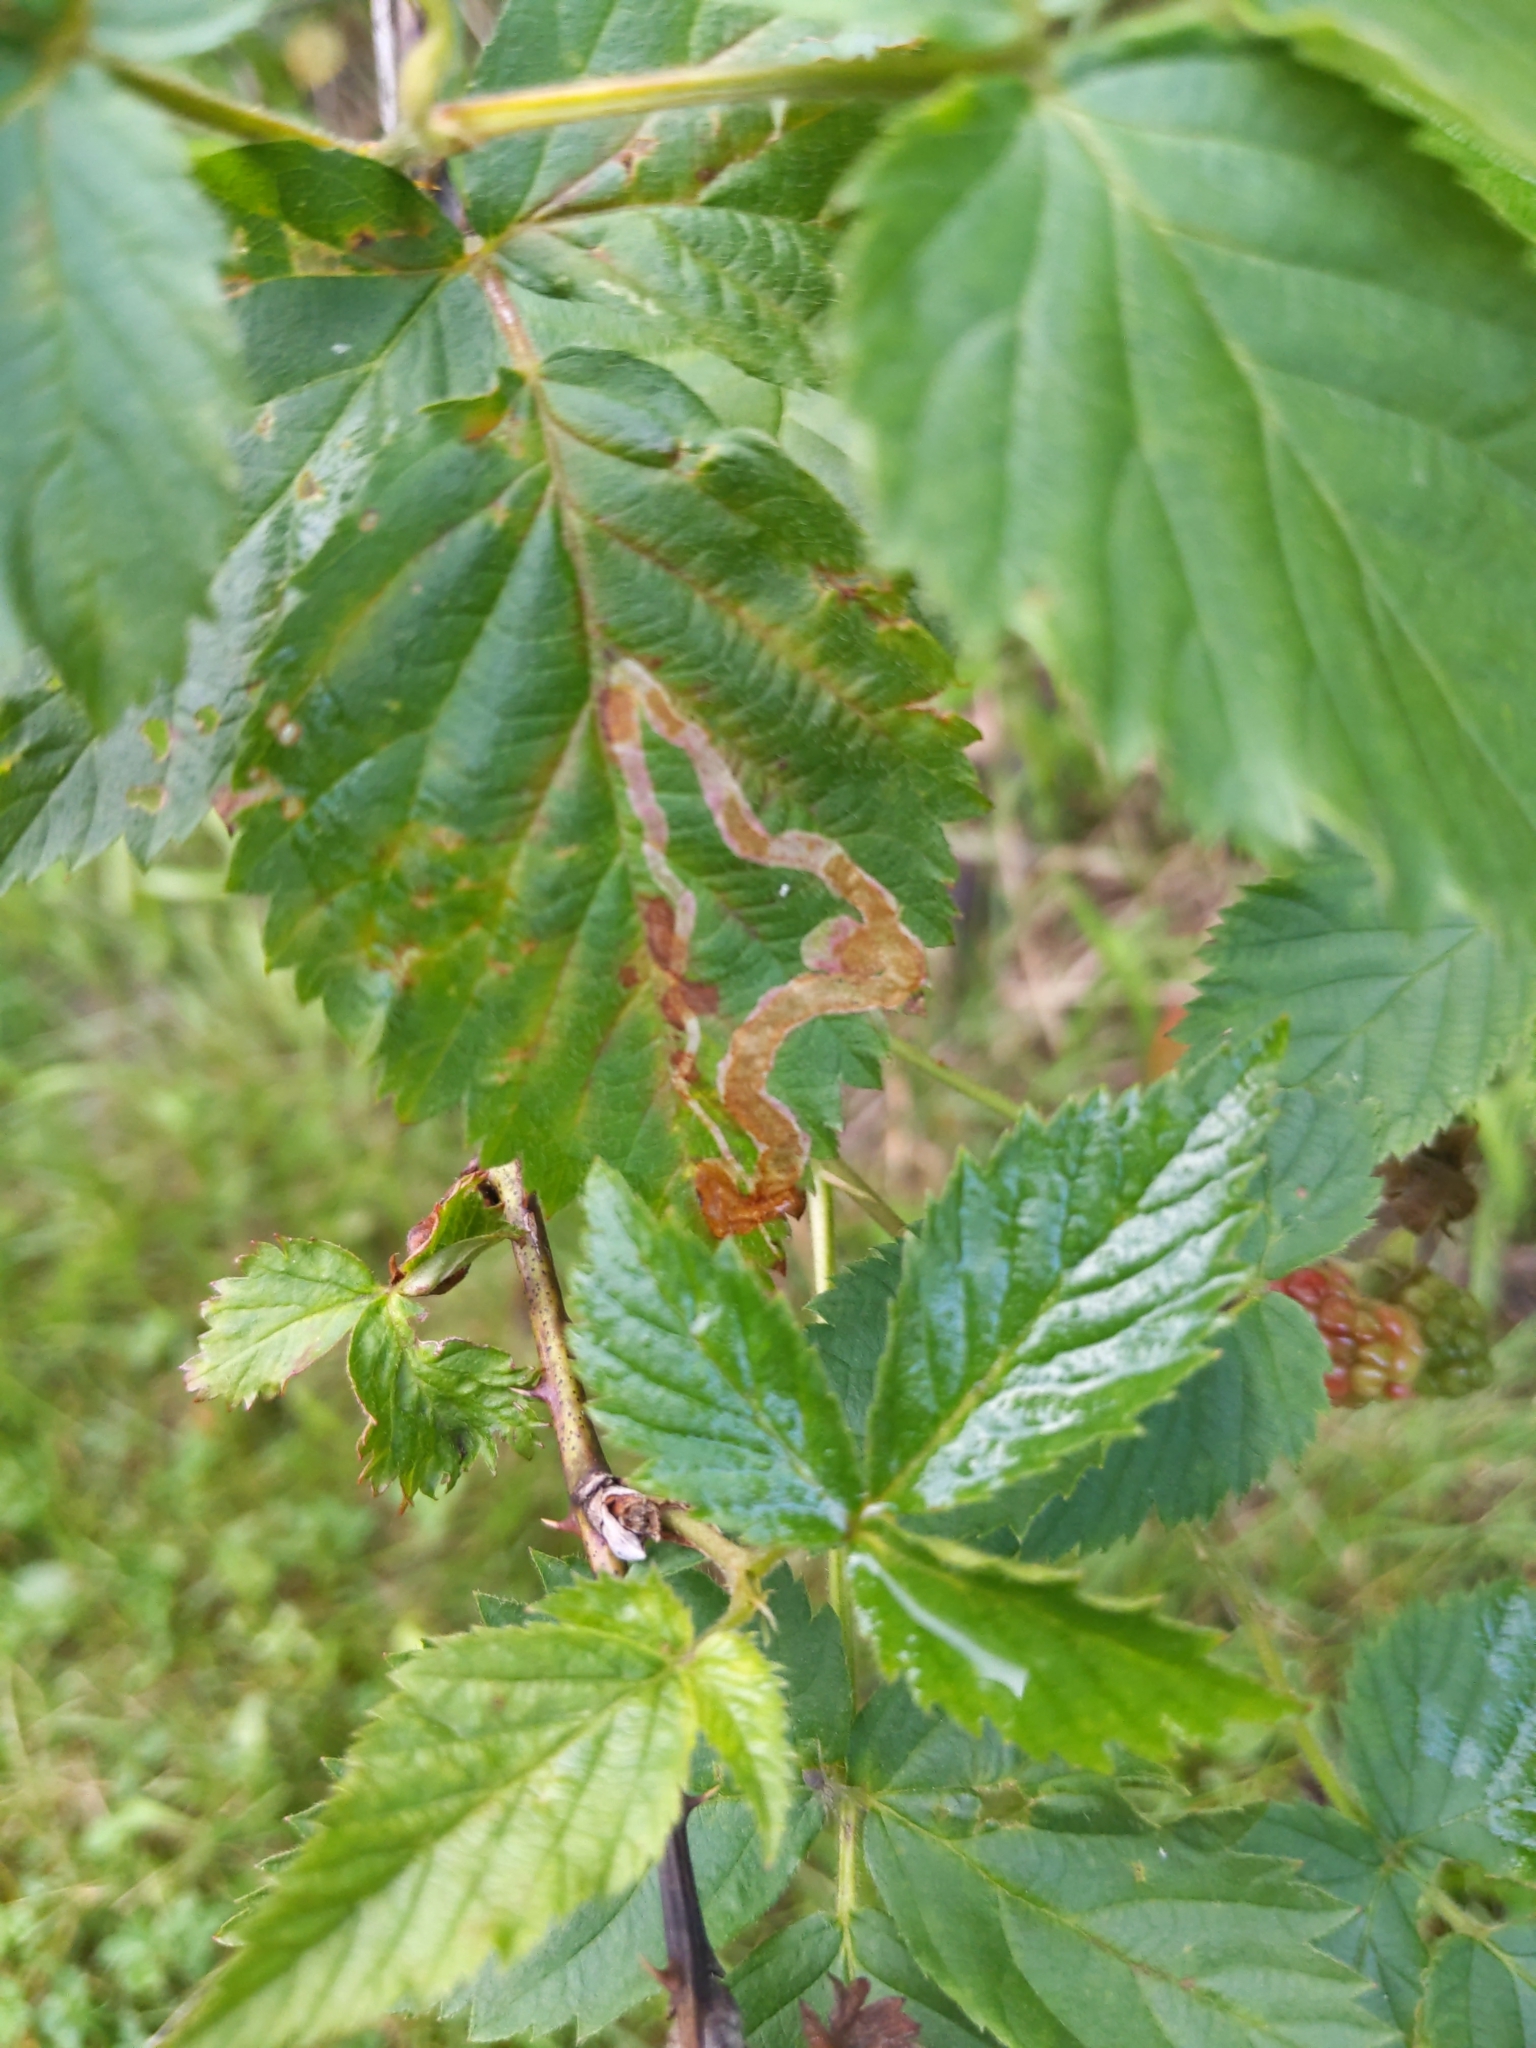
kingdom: Animalia
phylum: Arthropoda
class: Insecta
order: Diptera
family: Agromyzidae
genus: Agromyza
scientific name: Agromyza vockerothi
